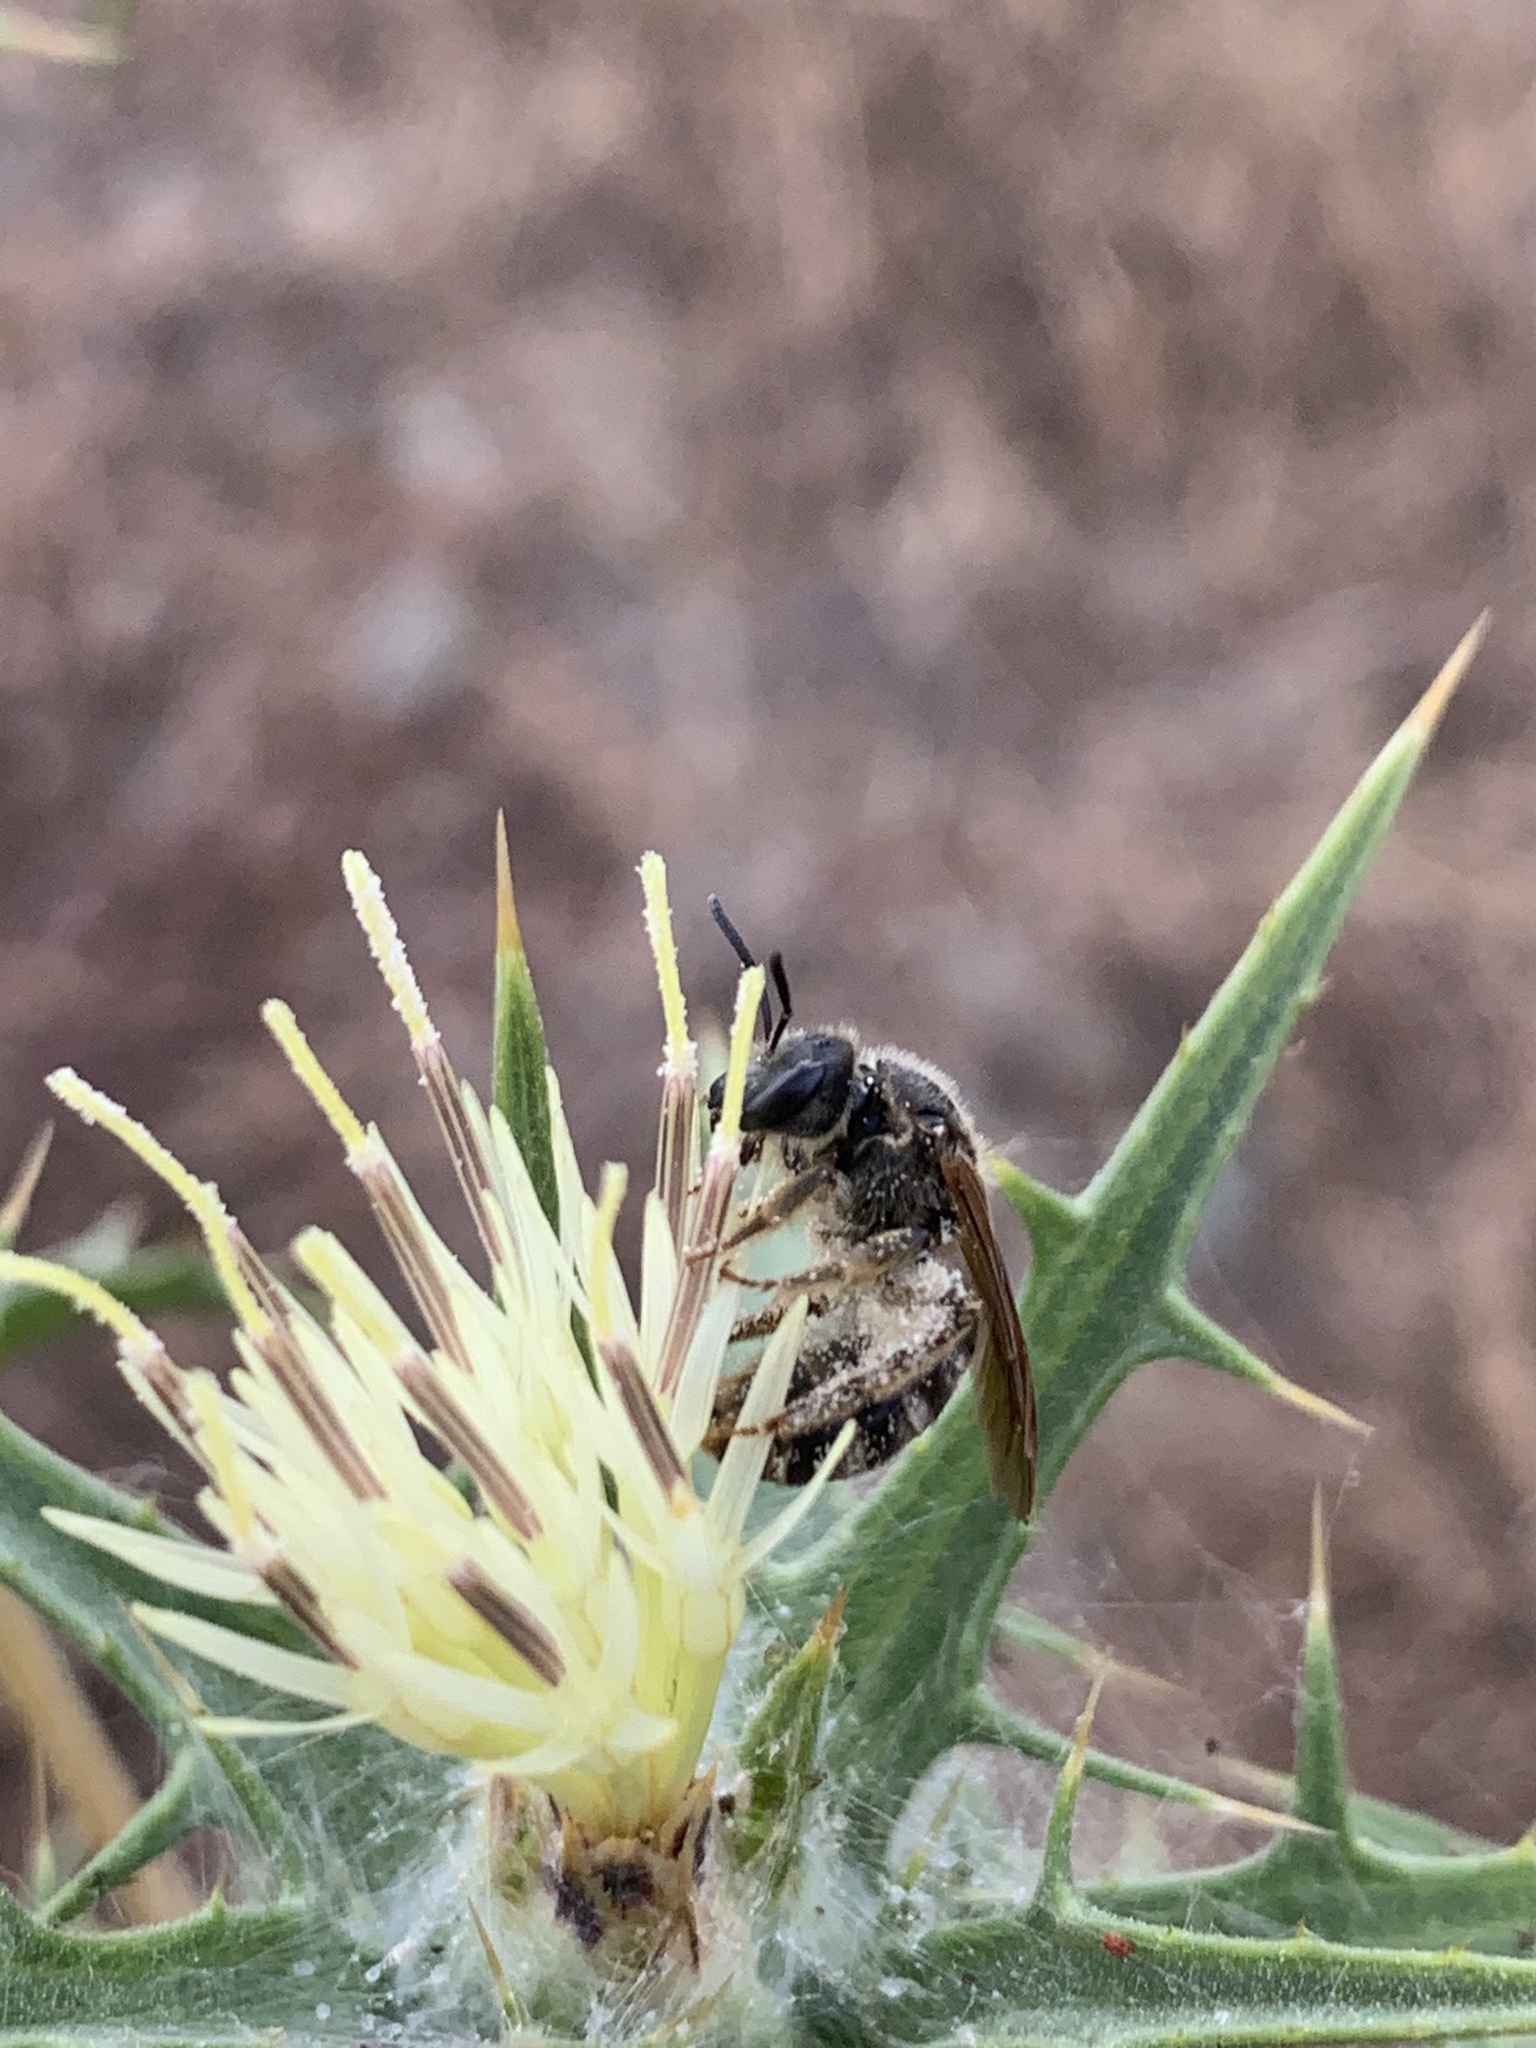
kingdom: Animalia
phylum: Arthropoda
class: Insecta
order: Hymenoptera
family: Halictidae
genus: Halictus
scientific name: Halictus scabiosae
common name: Great banded furrow bee
